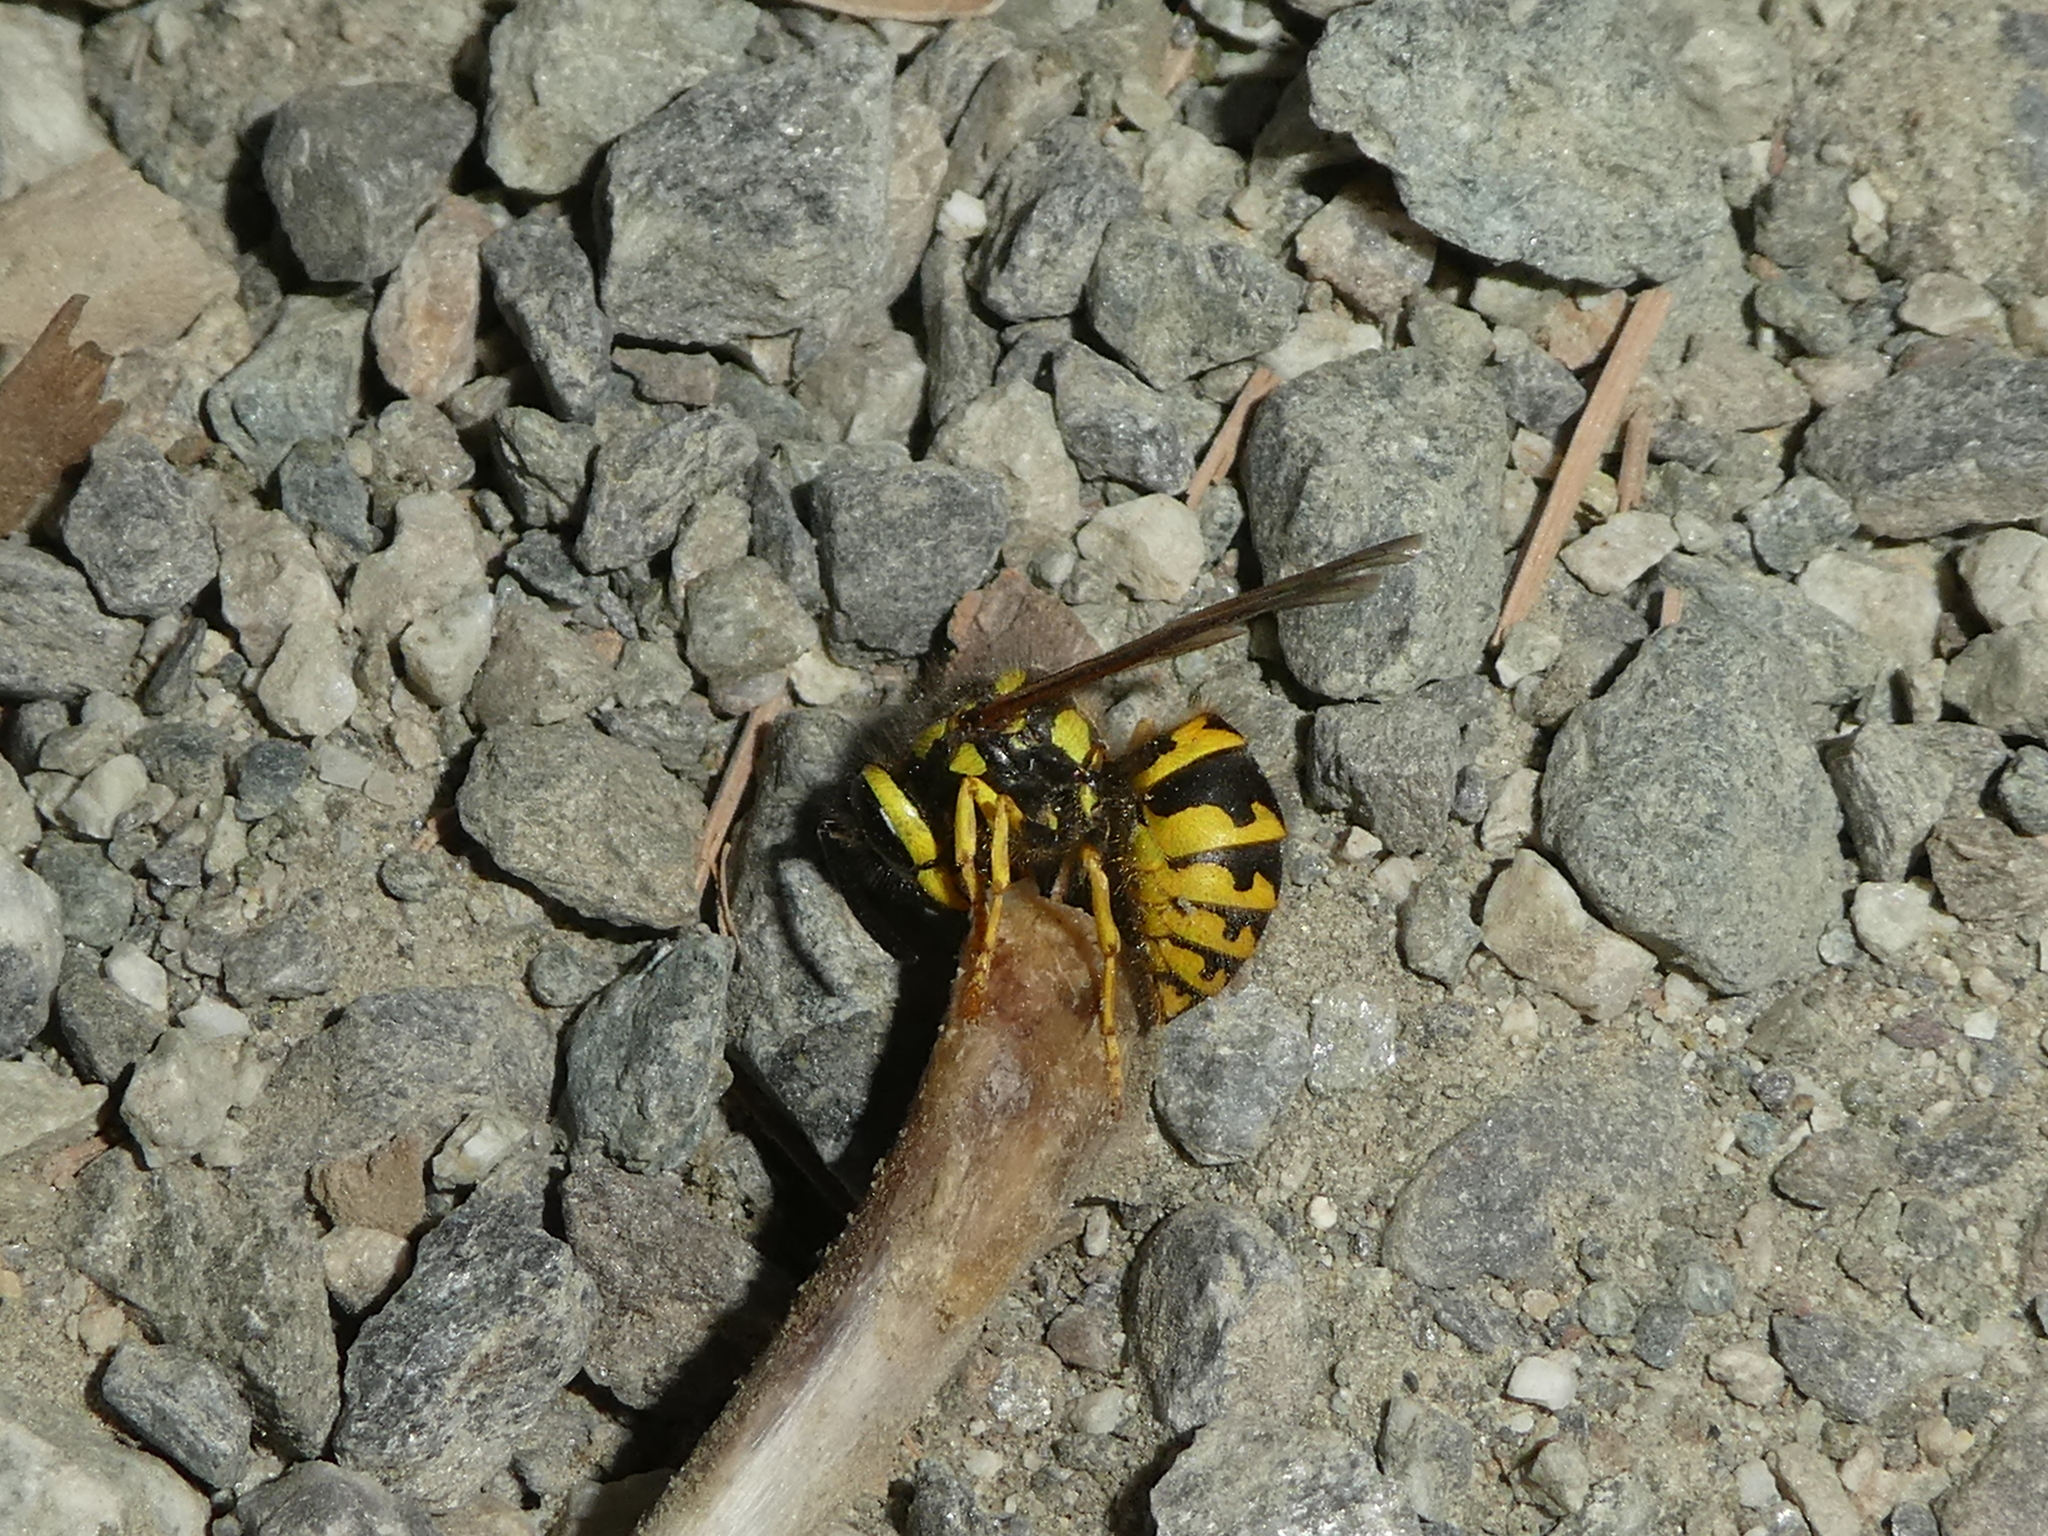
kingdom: Animalia
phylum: Arthropoda
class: Insecta
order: Hymenoptera
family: Vespidae
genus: Vespula
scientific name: Vespula pensylvanica
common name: Western yellowjacket
